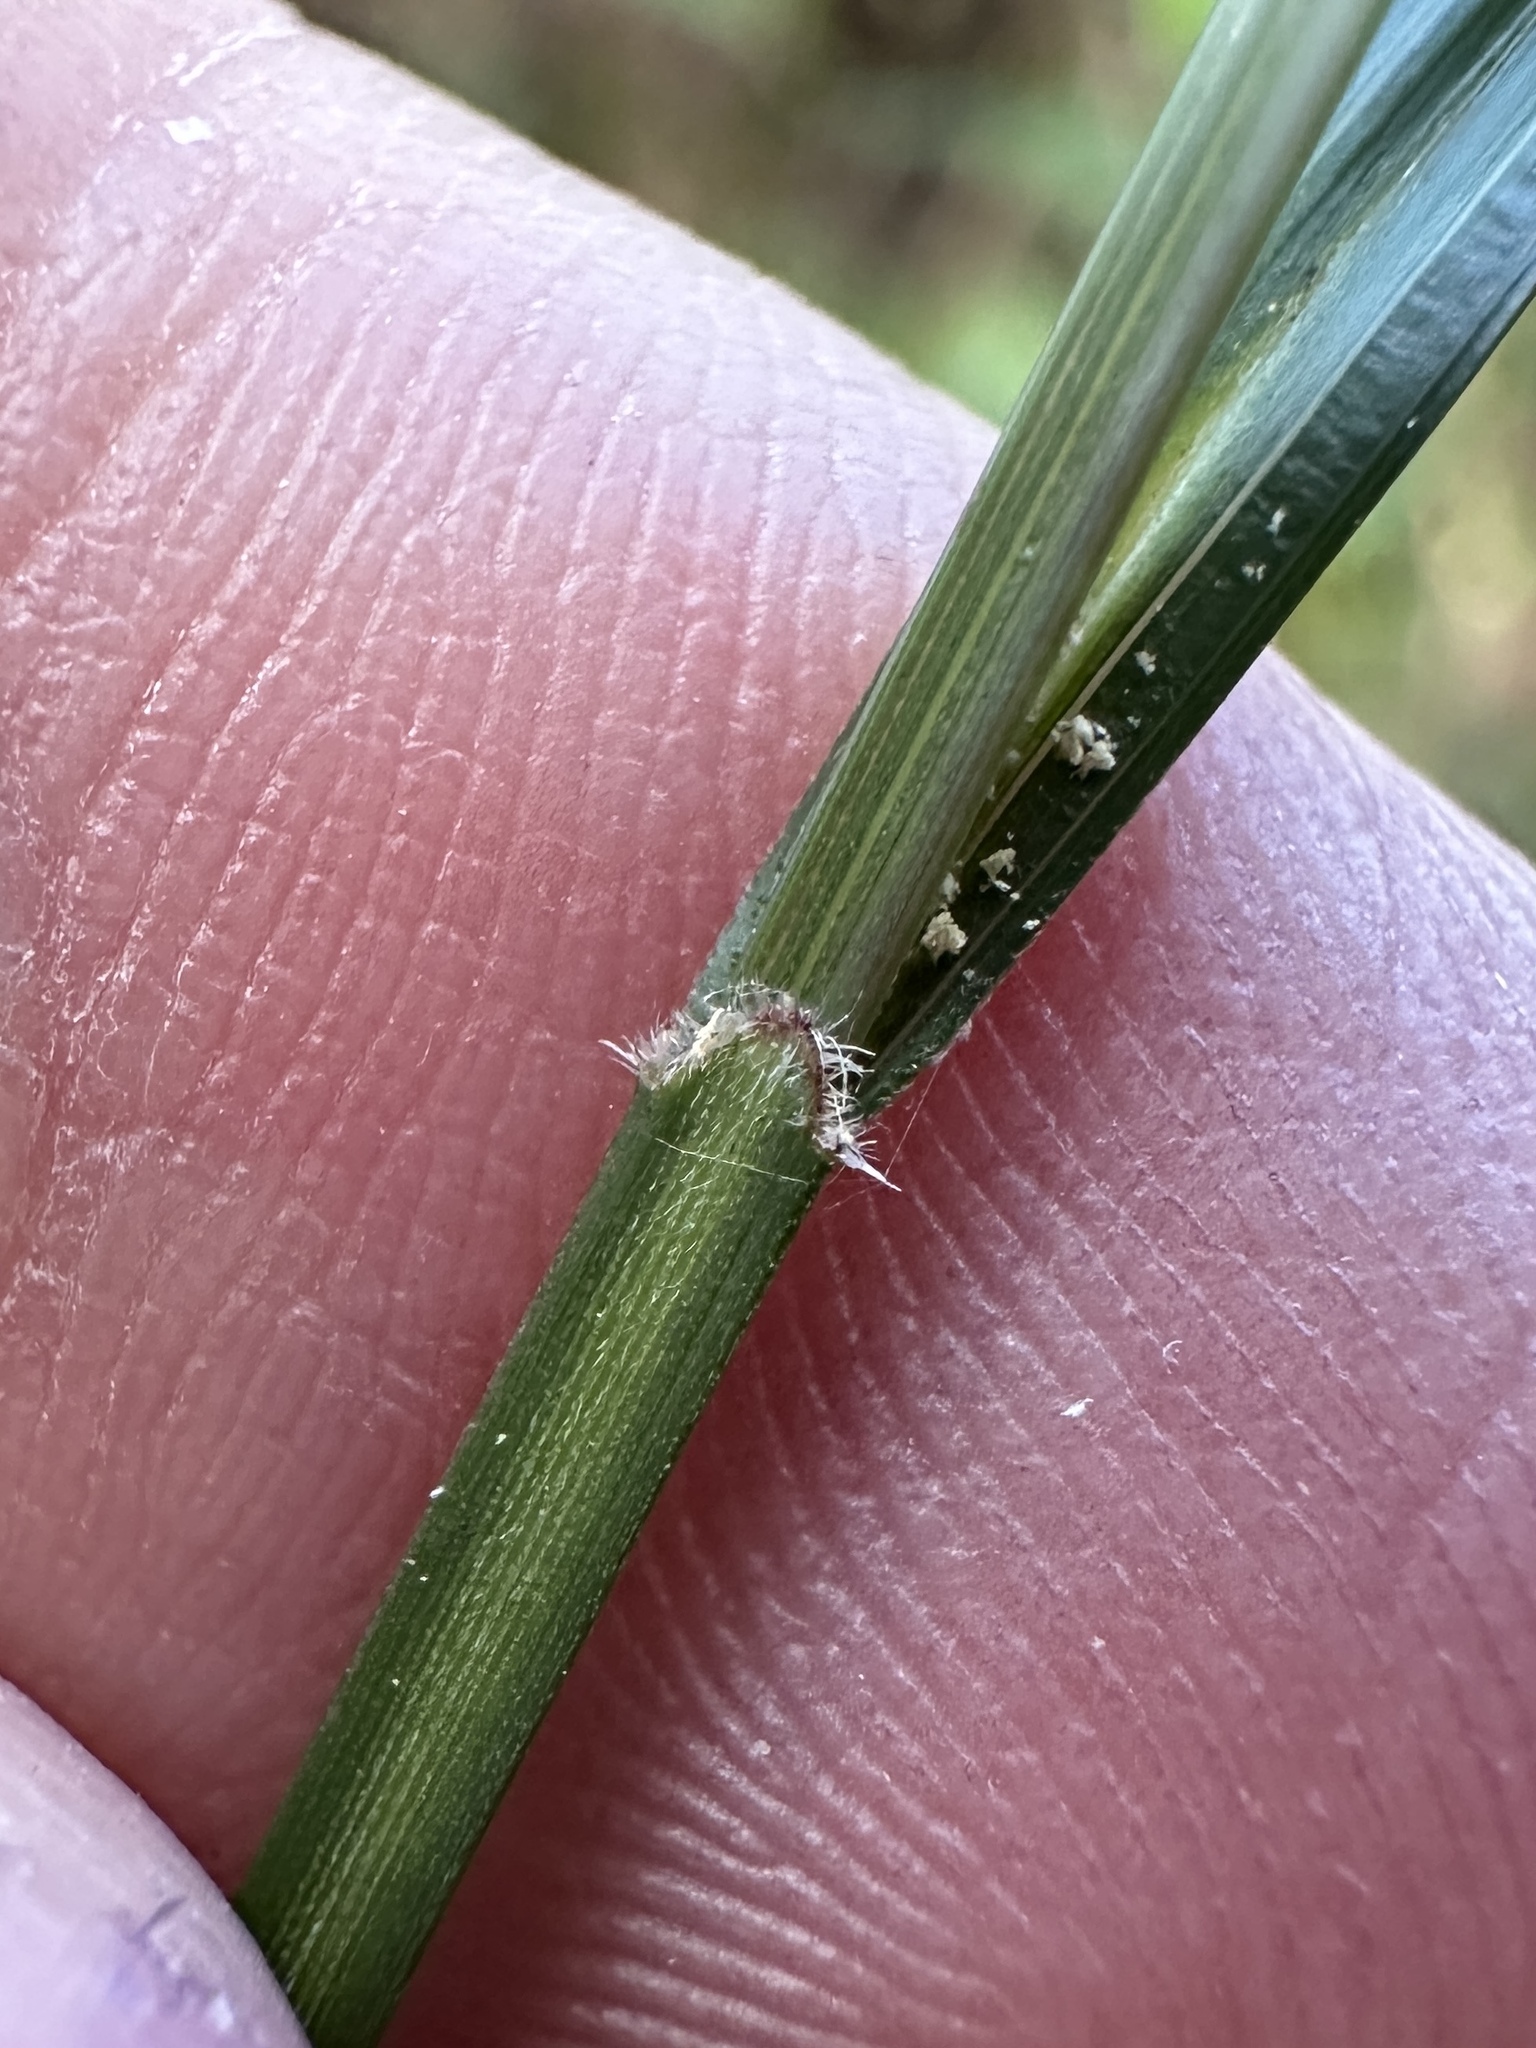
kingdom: Plantae
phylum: Tracheophyta
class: Liliopsida
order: Poales
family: Cyperaceae
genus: Scleria
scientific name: Scleria lithosperma
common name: Florida keys nut-rush
